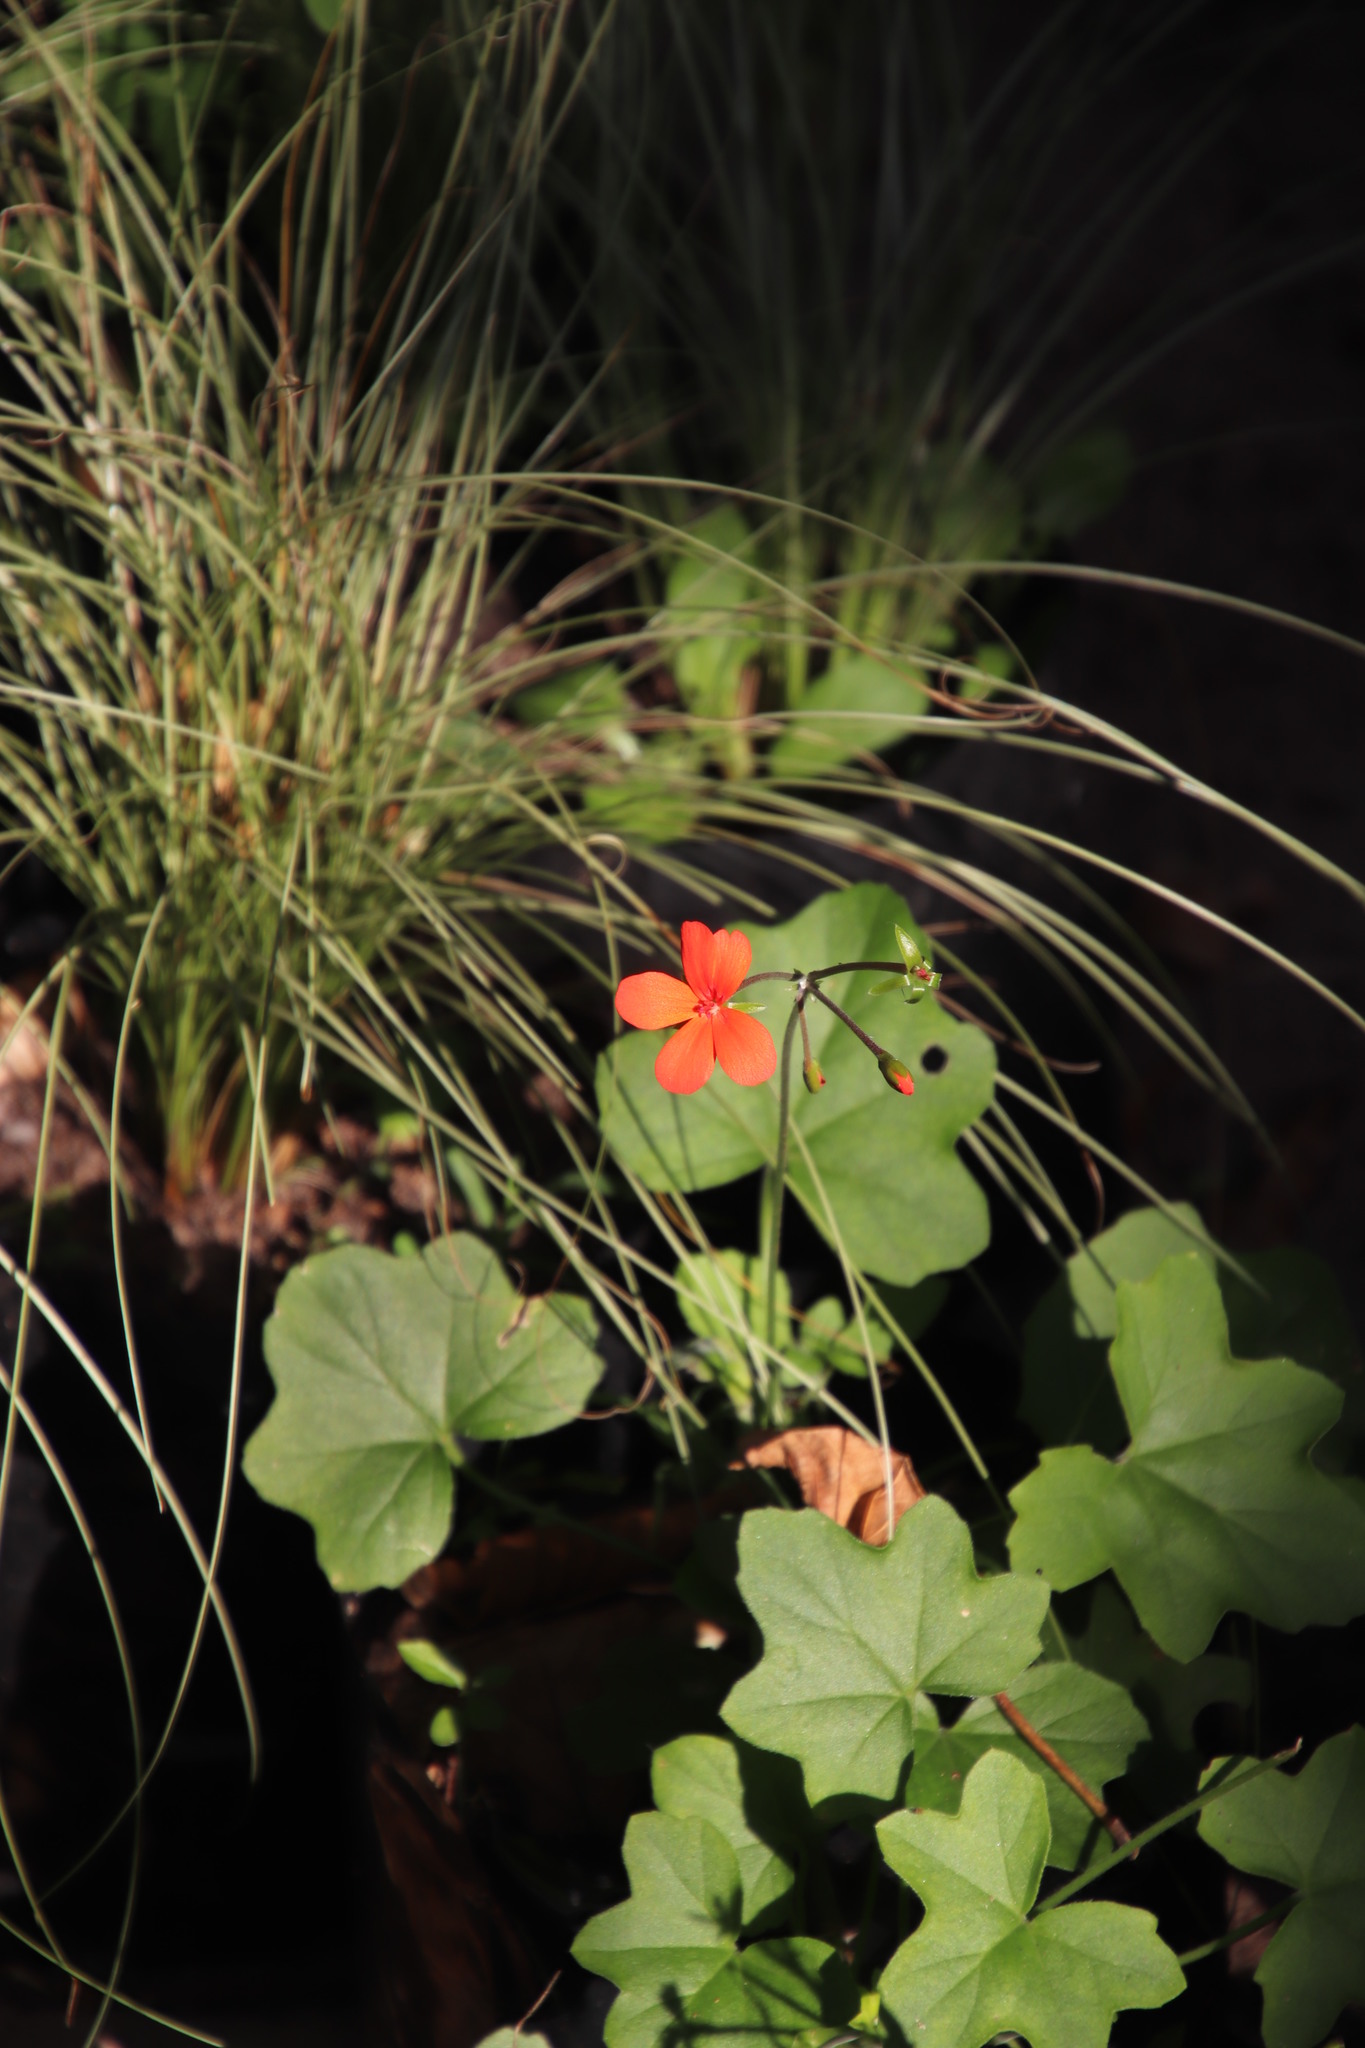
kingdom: Plantae
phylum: Tracheophyta
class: Magnoliopsida
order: Geraniales
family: Geraniaceae
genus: Pelargonium
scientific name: Pelargonium tongaense
